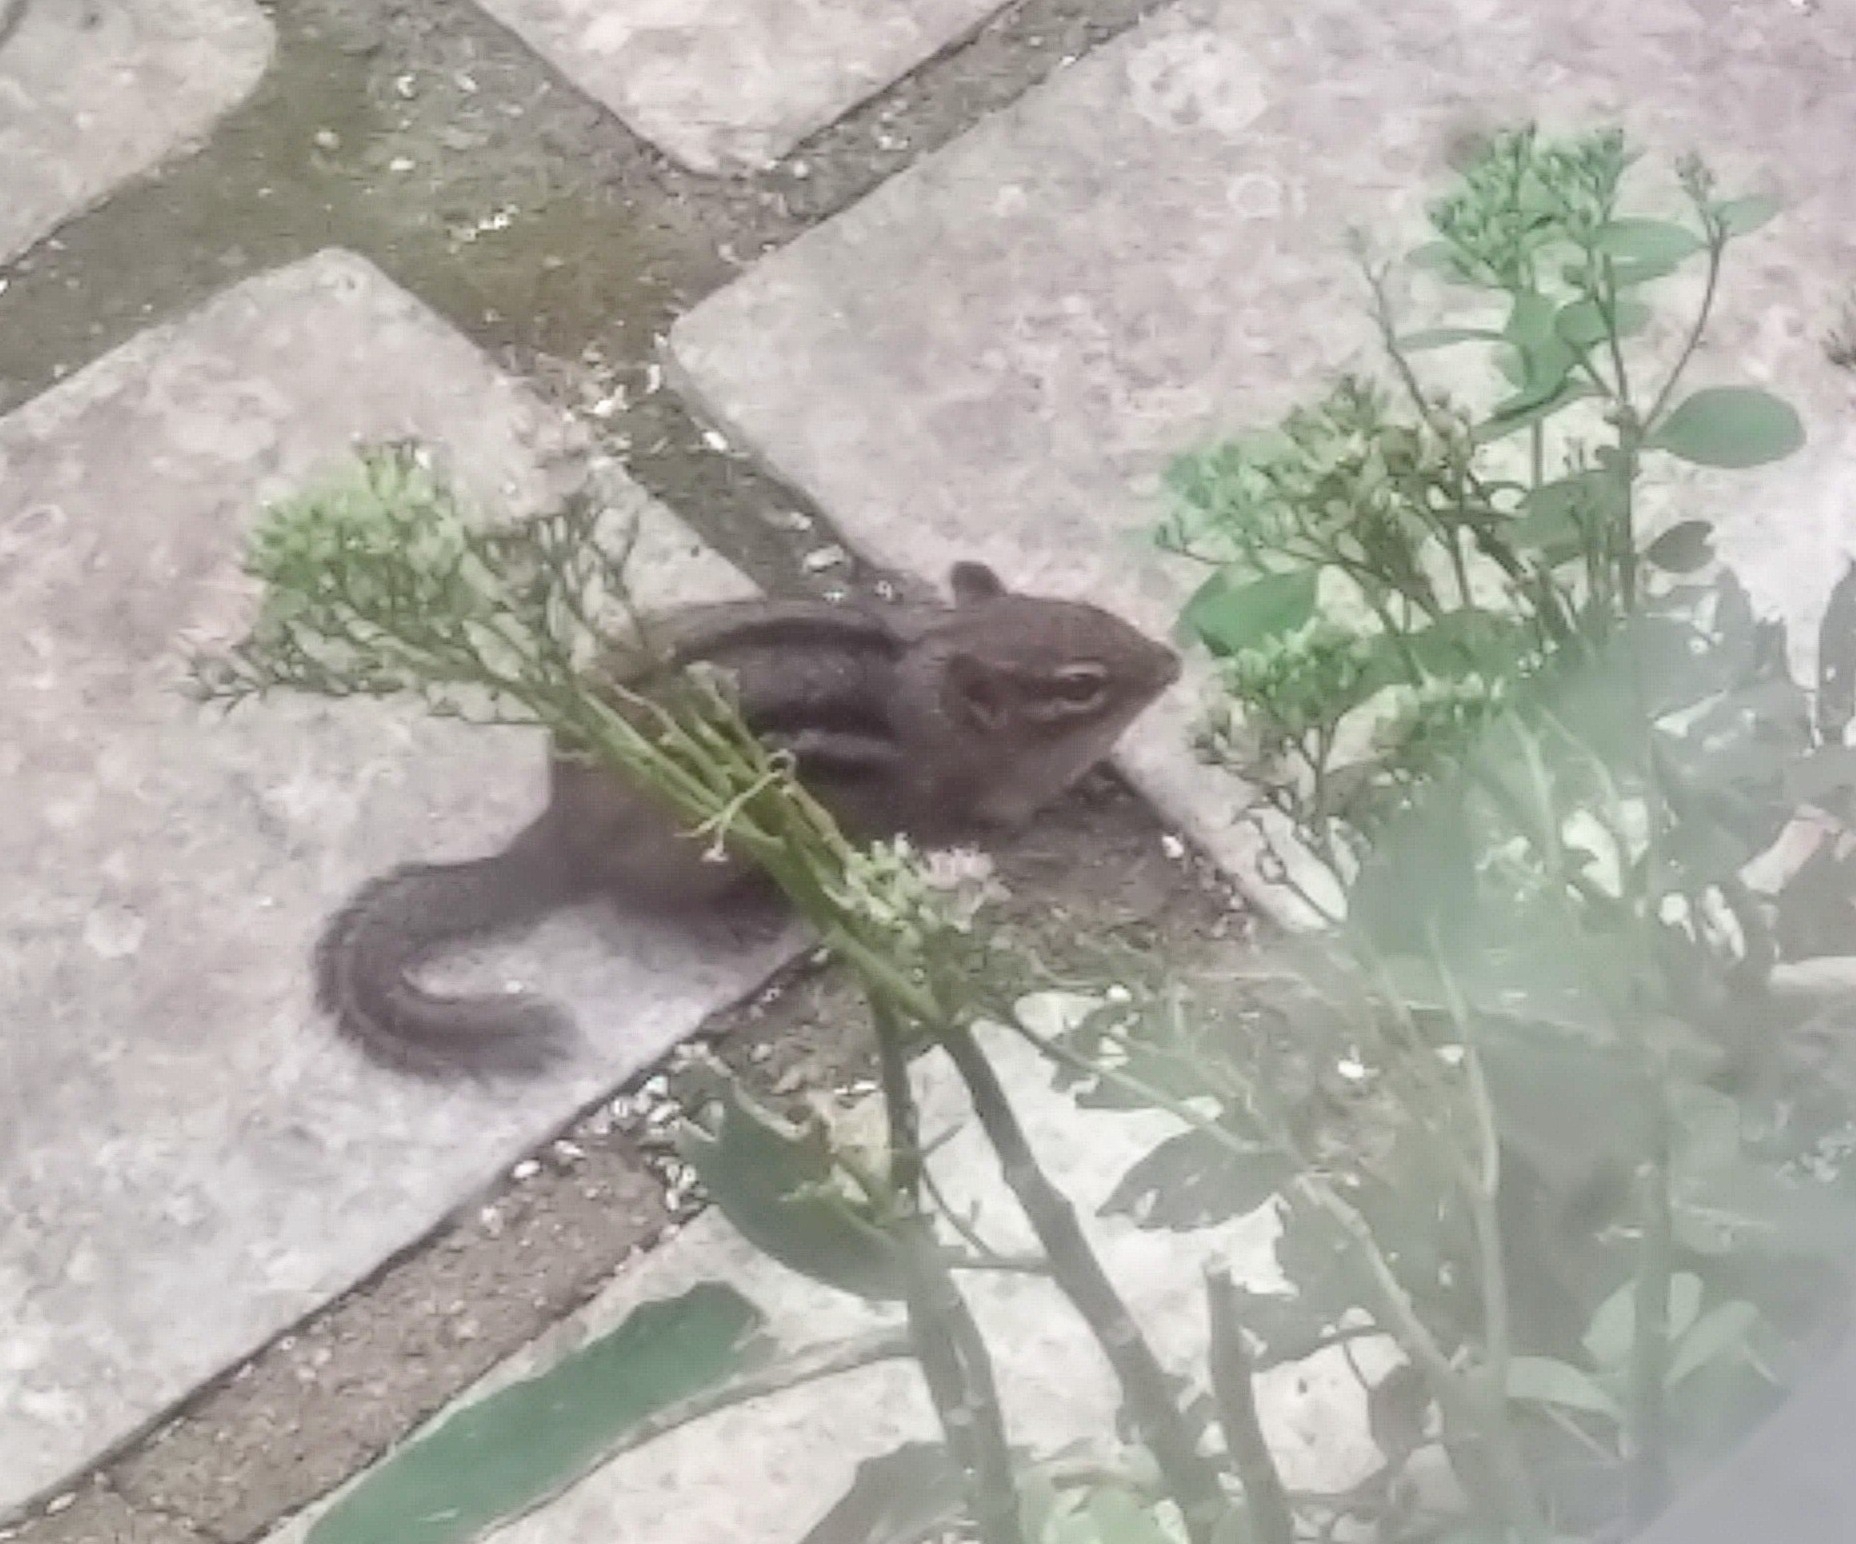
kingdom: Animalia
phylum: Chordata
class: Mammalia
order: Rodentia
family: Sciuridae
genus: Tamias
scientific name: Tamias striatus
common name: Eastern chipmunk
